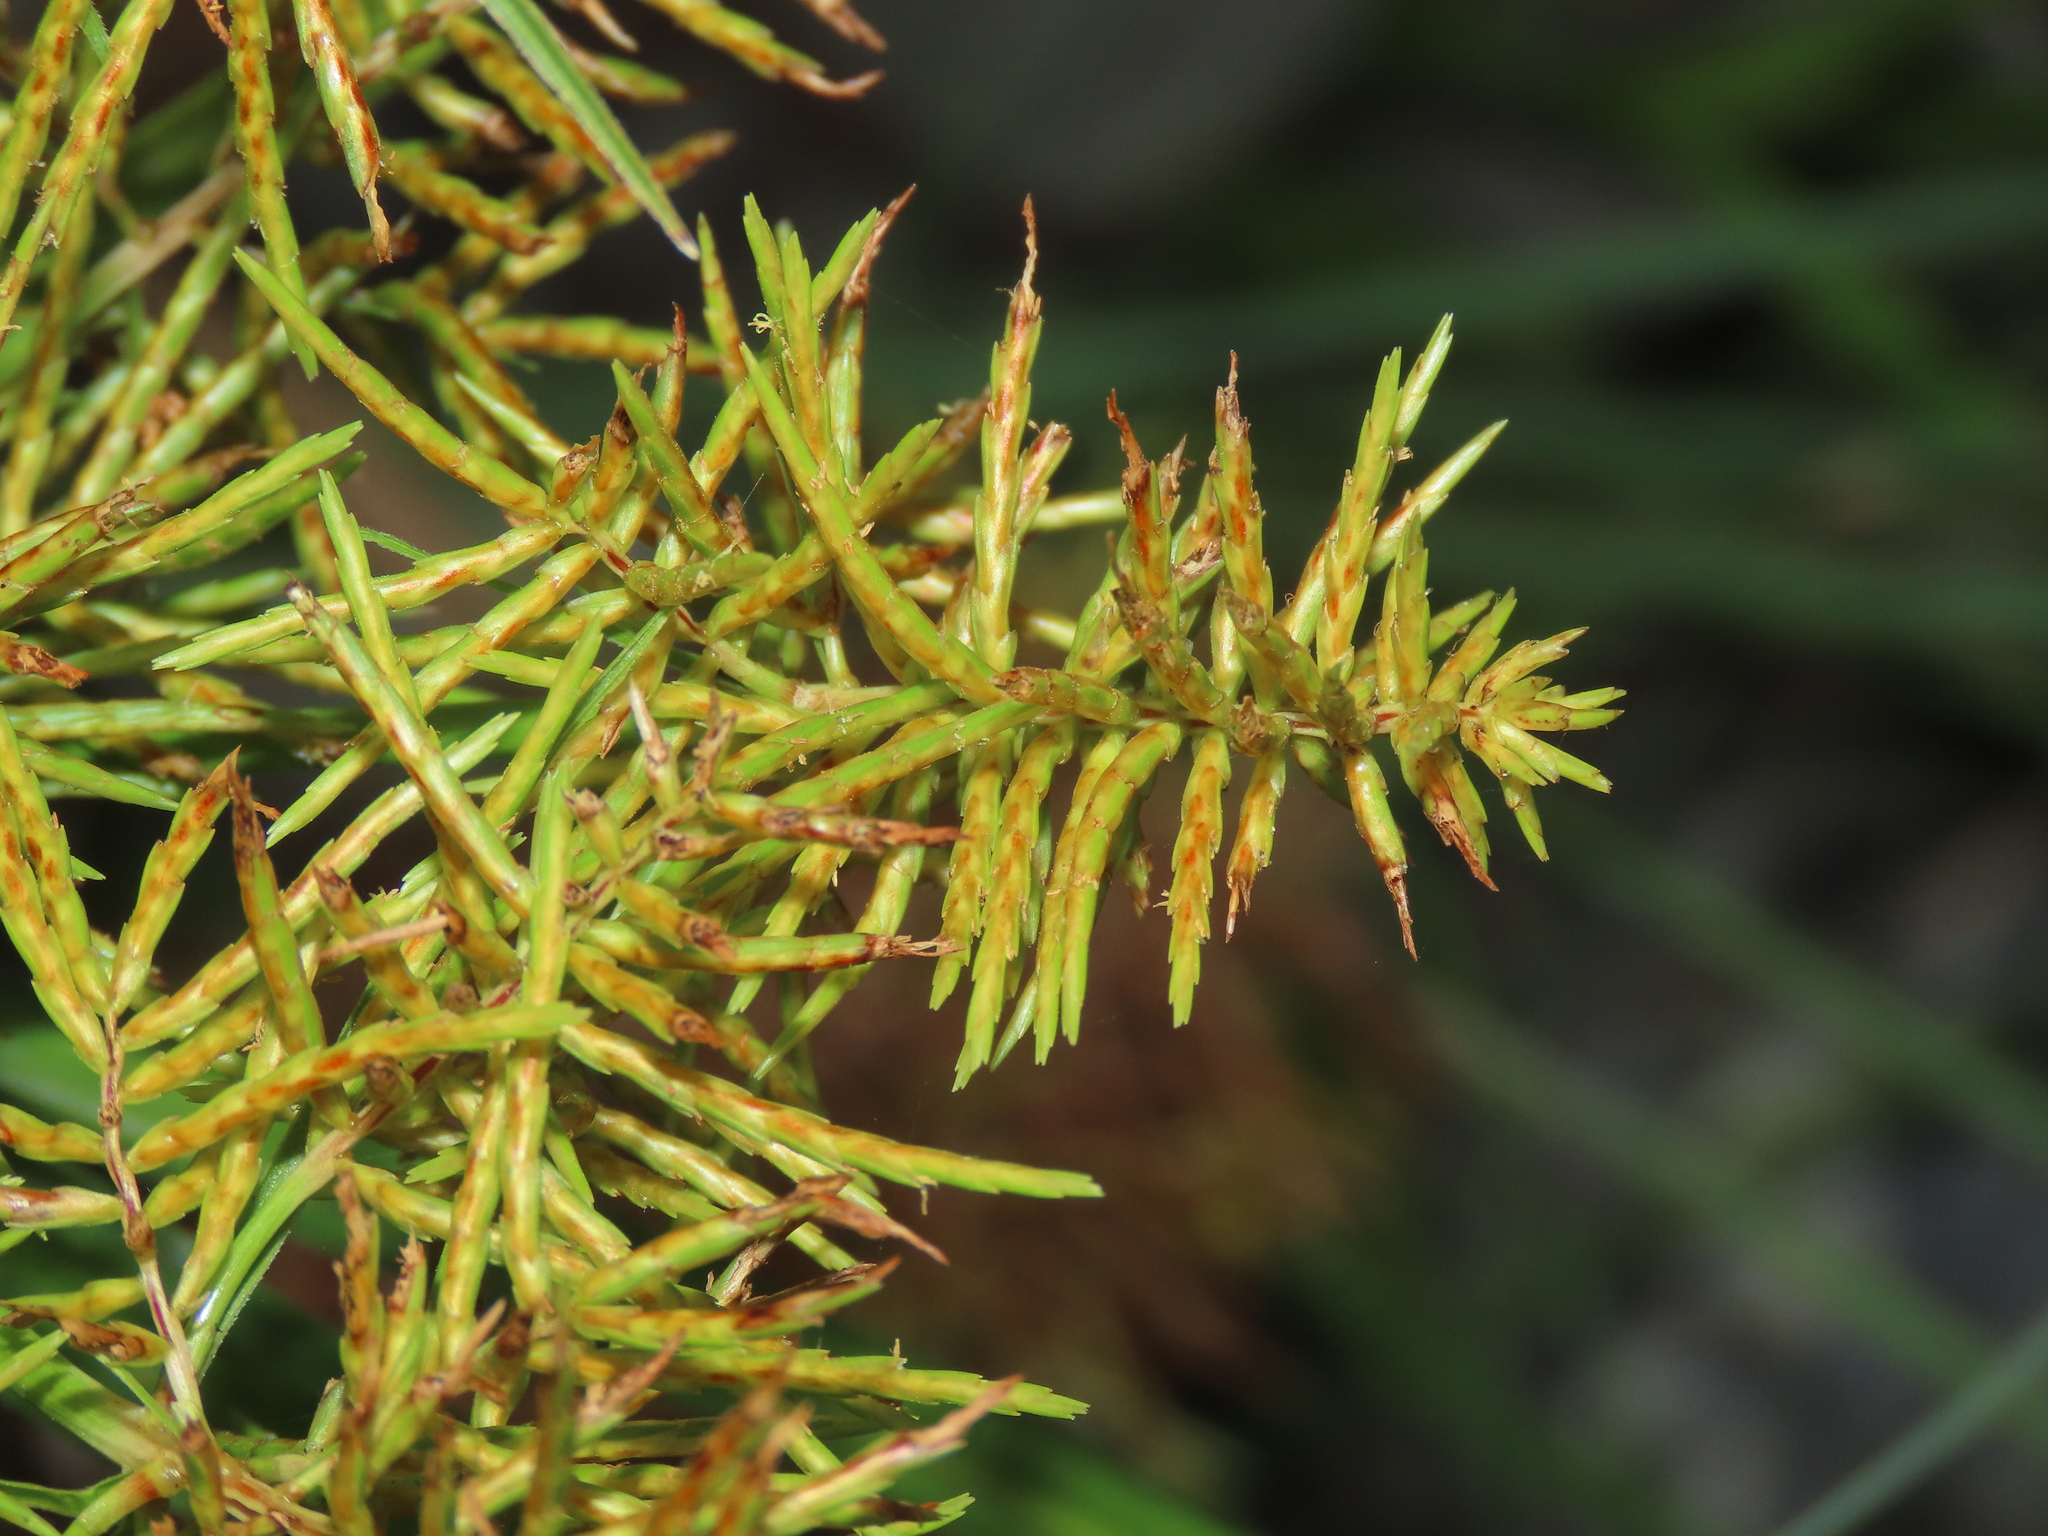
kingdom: Plantae
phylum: Tracheophyta
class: Liliopsida
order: Poales
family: Cyperaceae
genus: Cyperus
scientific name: Cyperus odoratus
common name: Fragrant flatsedge
